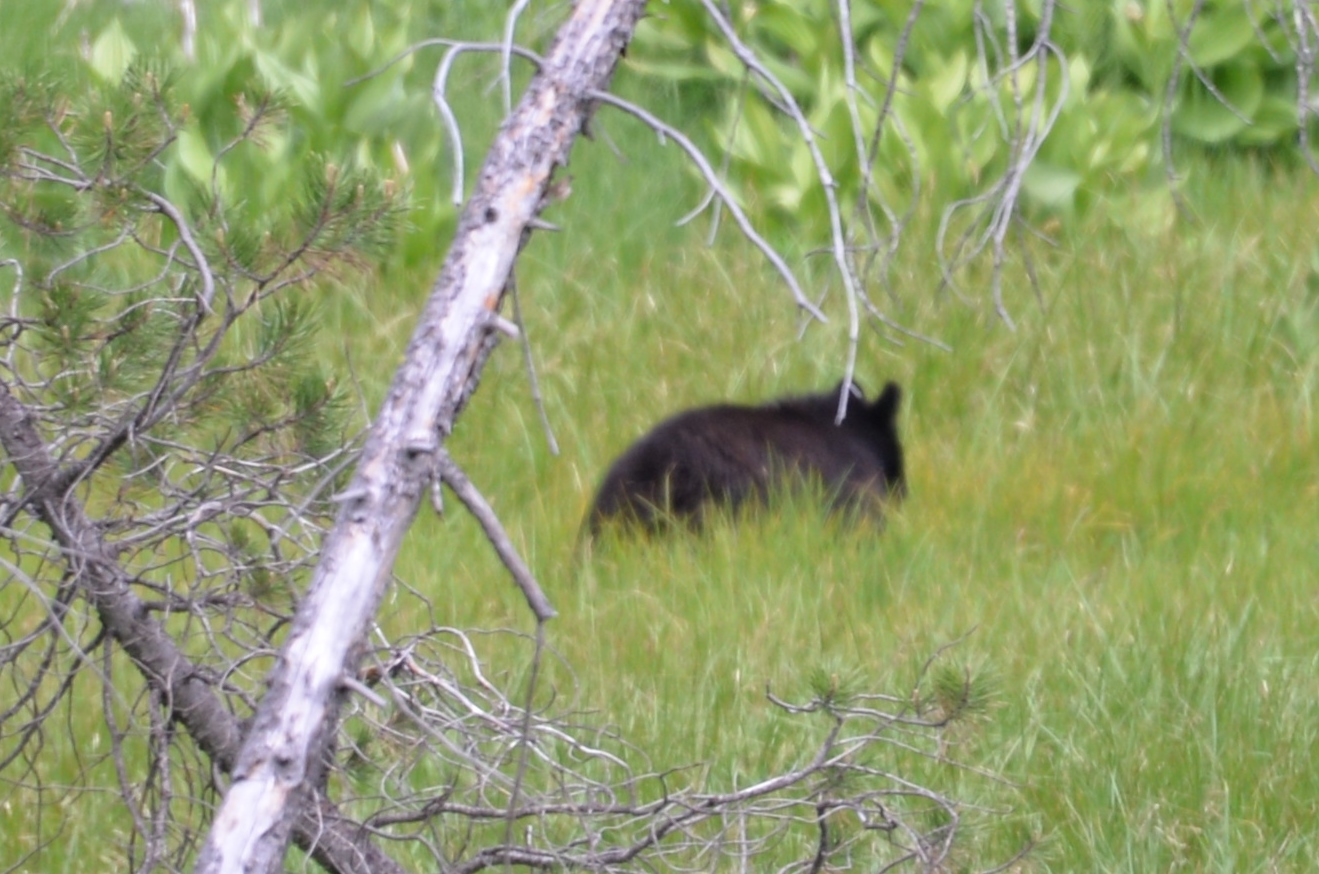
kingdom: Animalia
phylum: Chordata
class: Mammalia
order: Carnivora
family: Ursidae
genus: Ursus
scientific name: Ursus americanus
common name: American black bear
